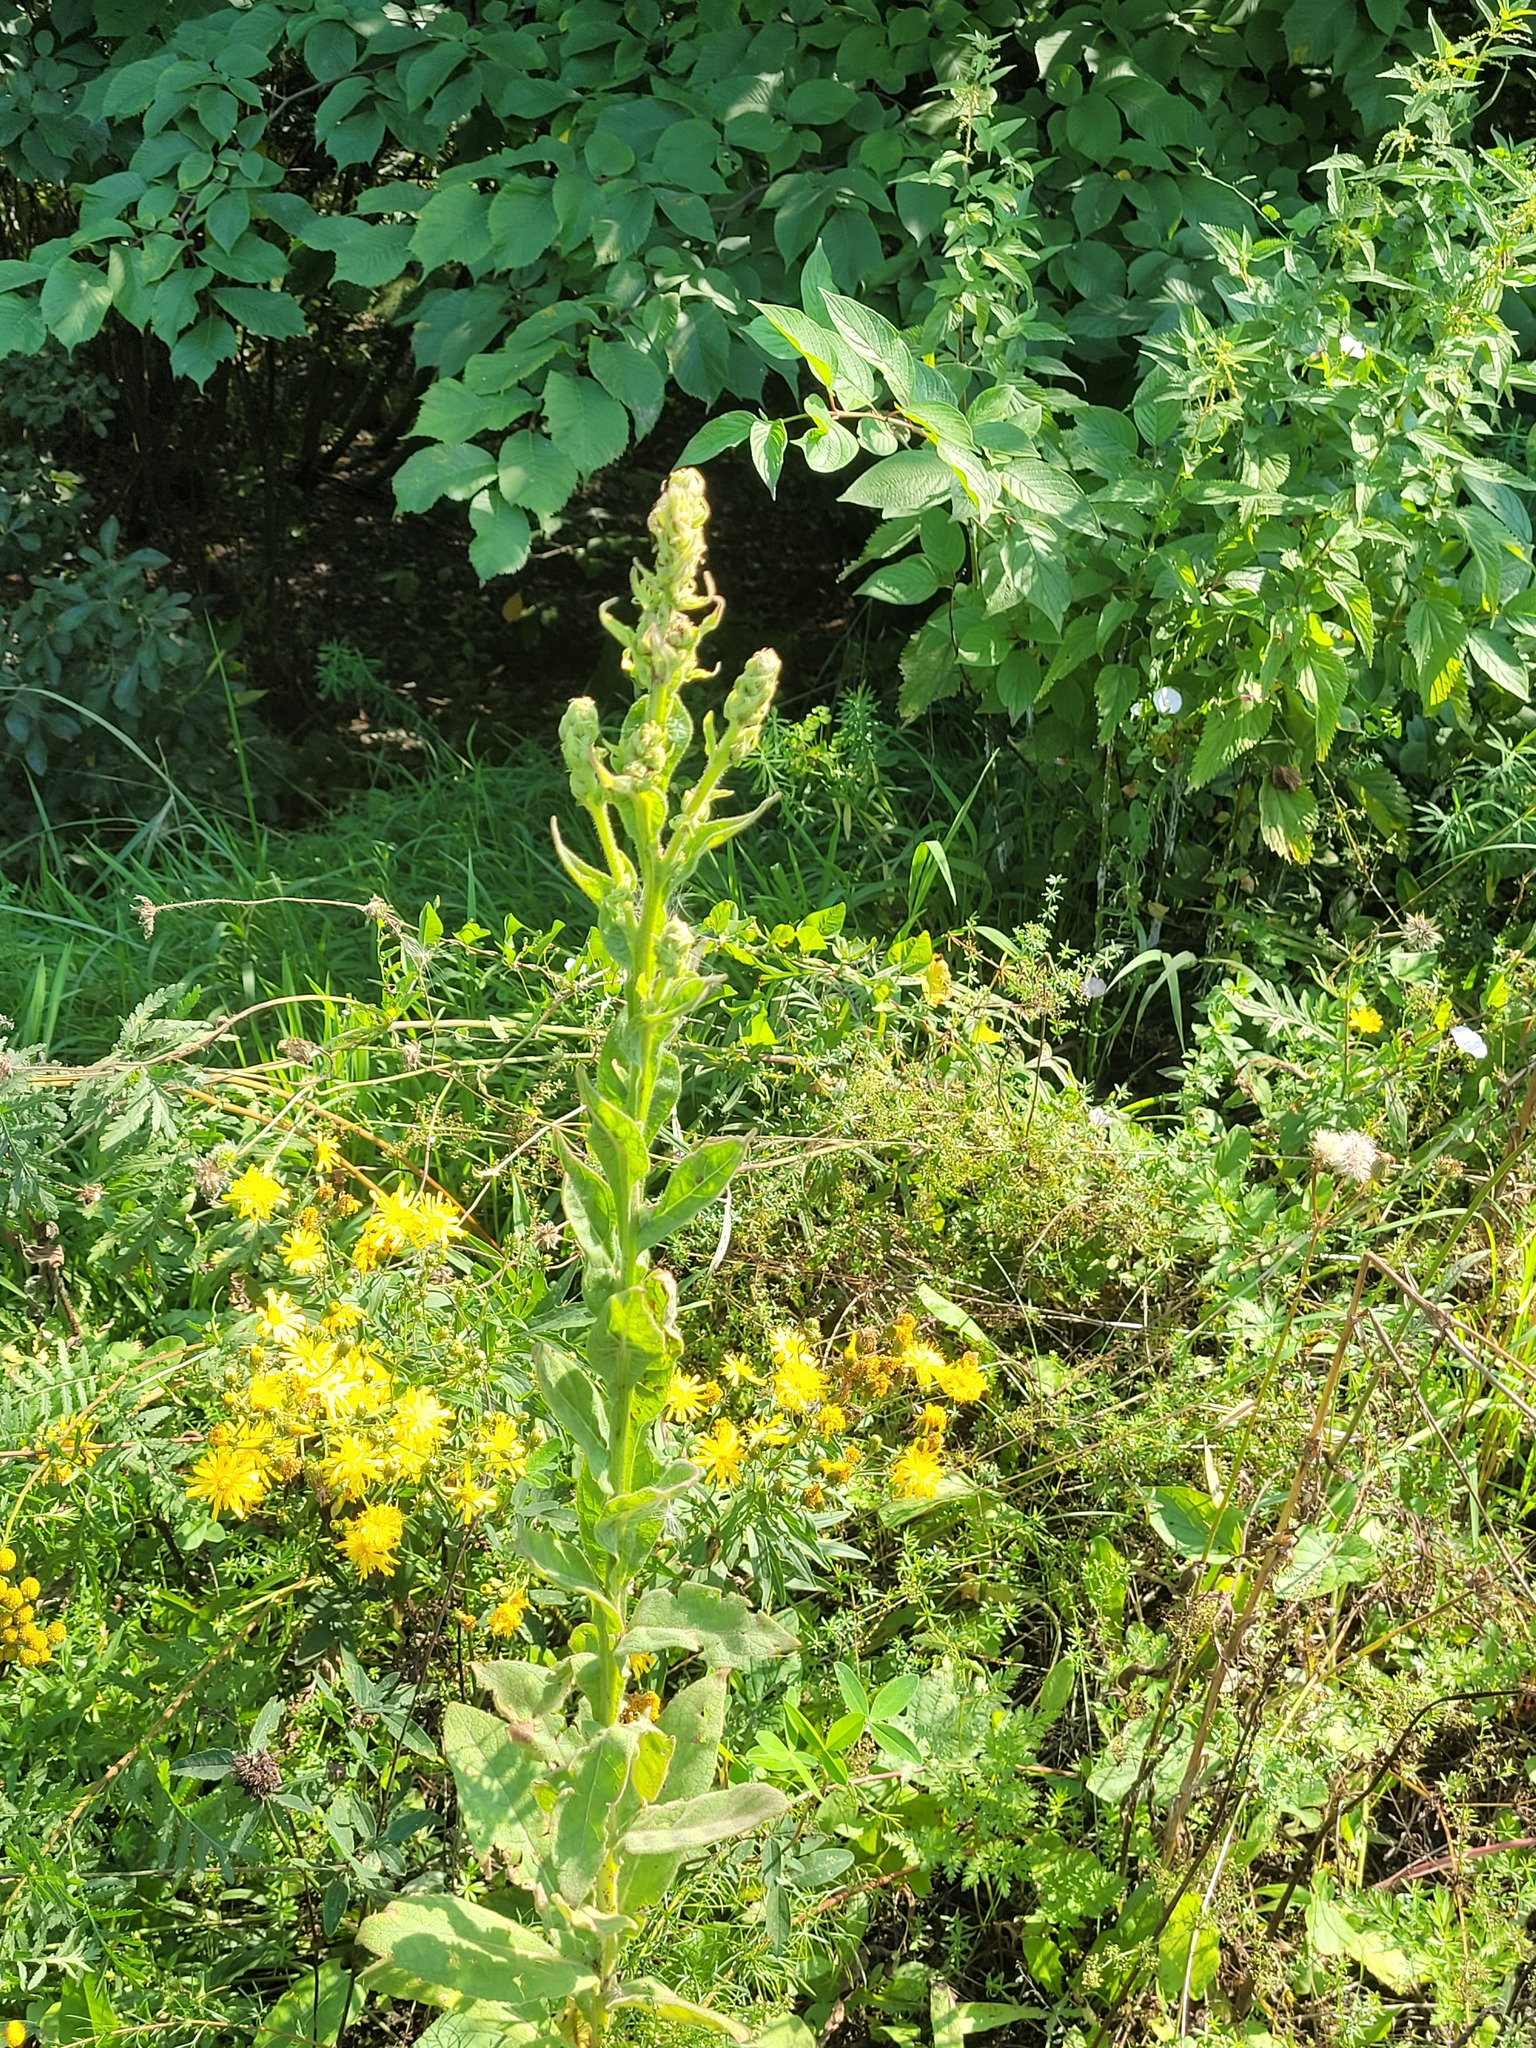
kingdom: Plantae
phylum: Tracheophyta
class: Magnoliopsida
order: Lamiales
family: Scrophulariaceae
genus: Verbascum
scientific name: Verbascum thapsus
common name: Common mullein
